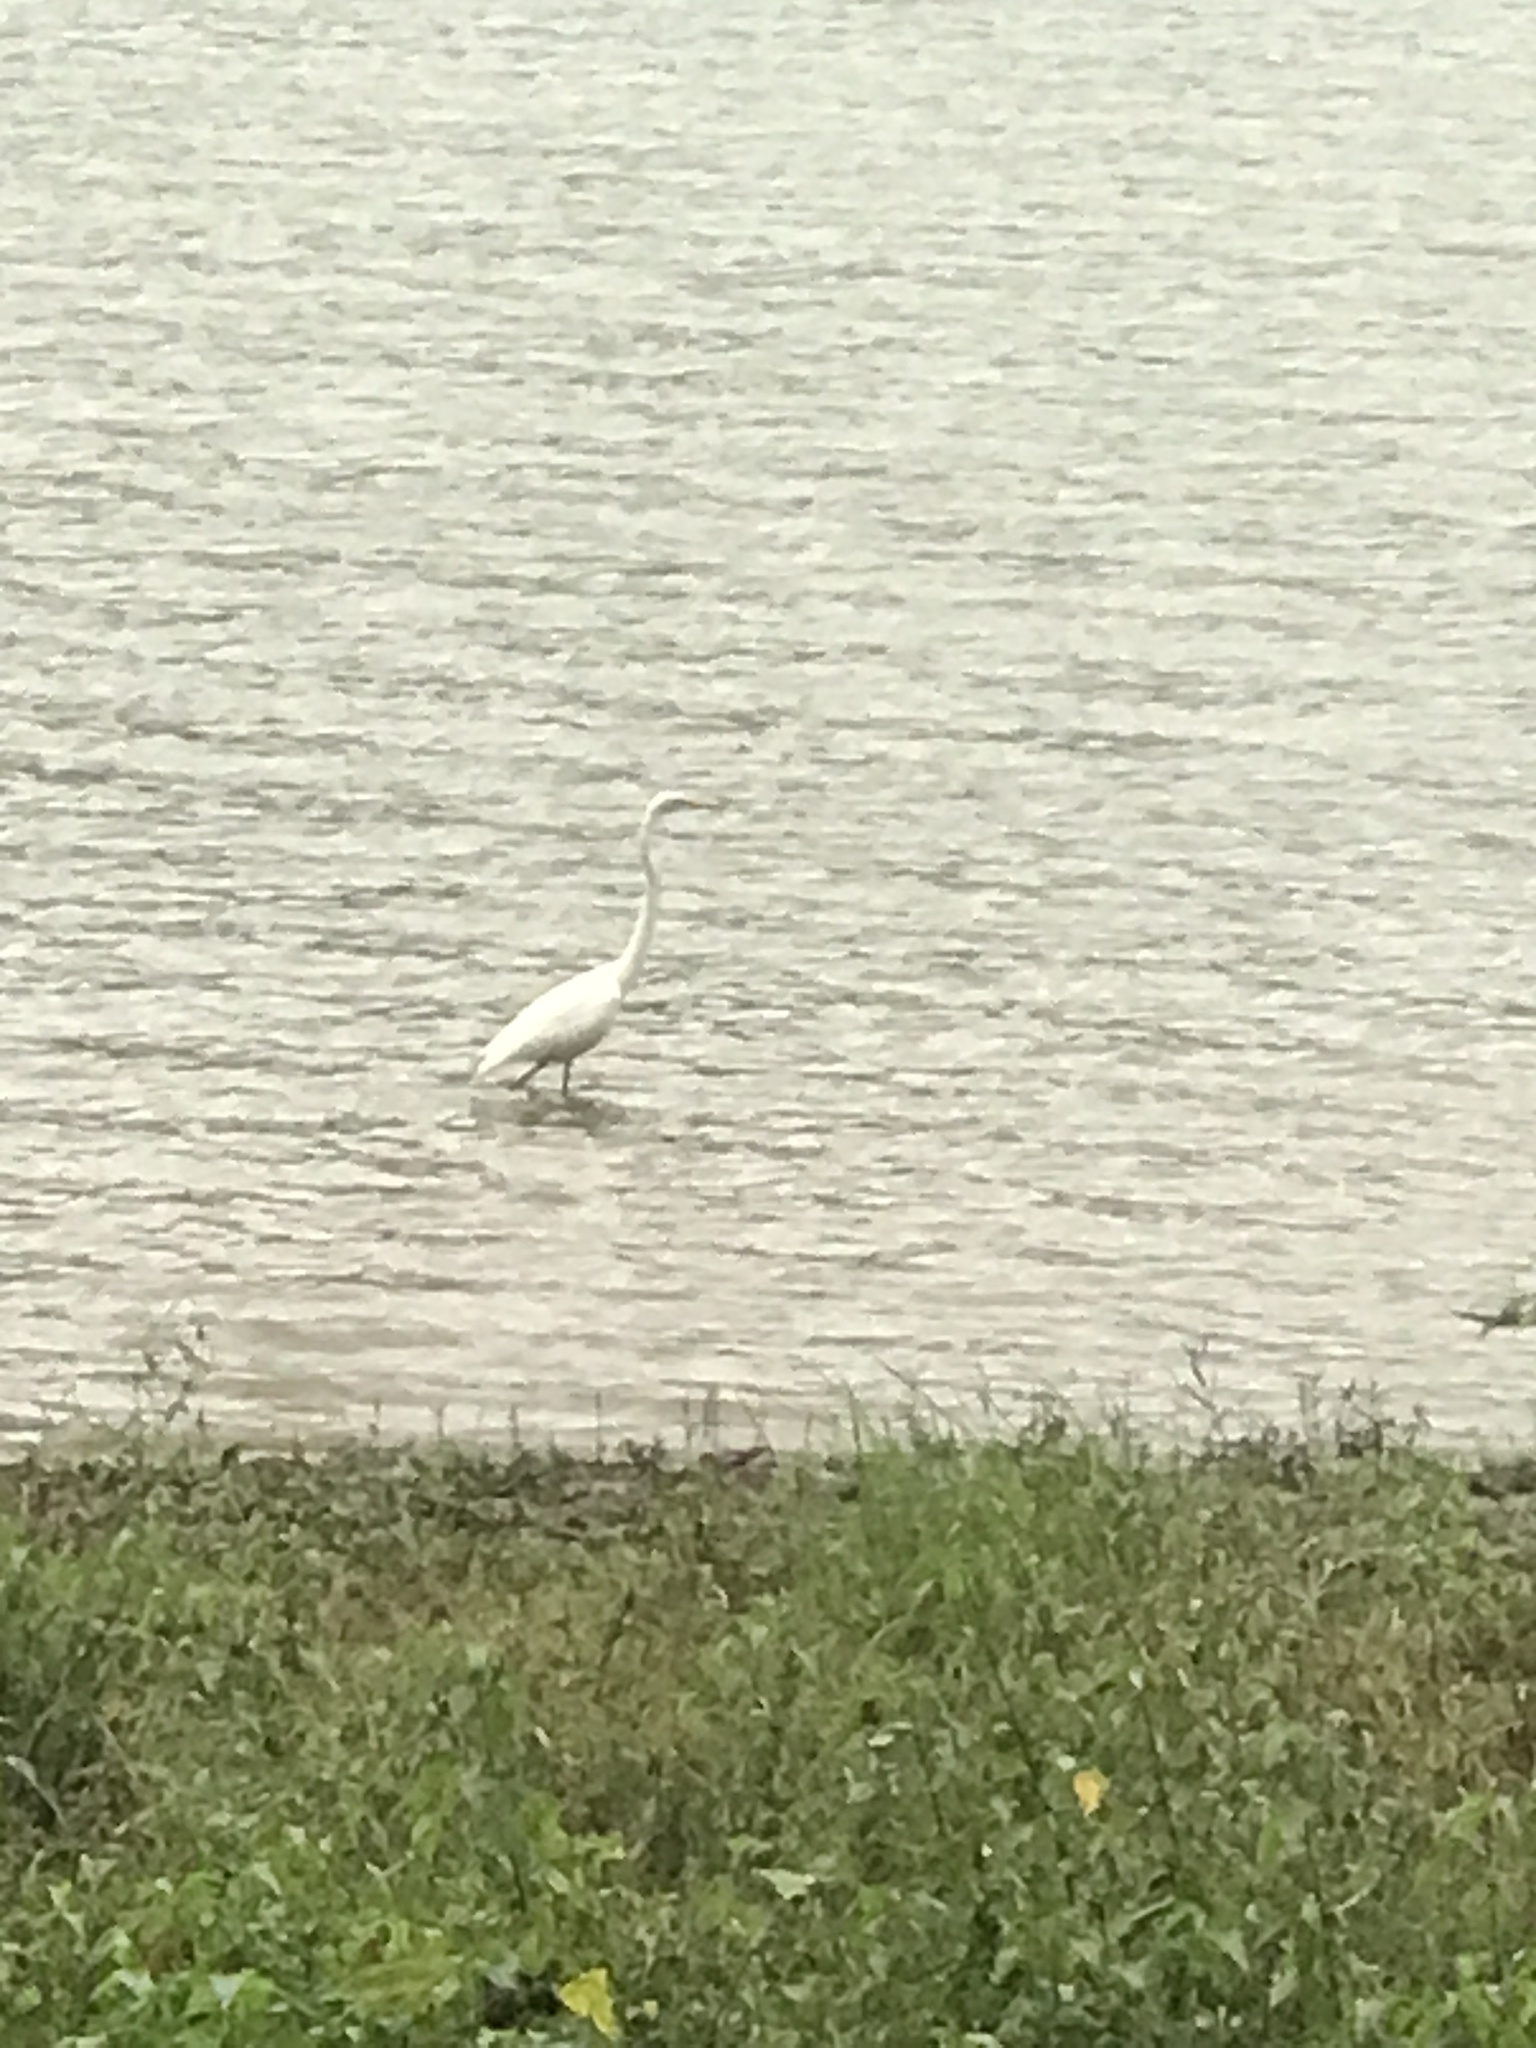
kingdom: Animalia
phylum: Chordata
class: Aves
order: Pelecaniformes
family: Ardeidae
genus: Ardea
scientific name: Ardea alba
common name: Great egret
